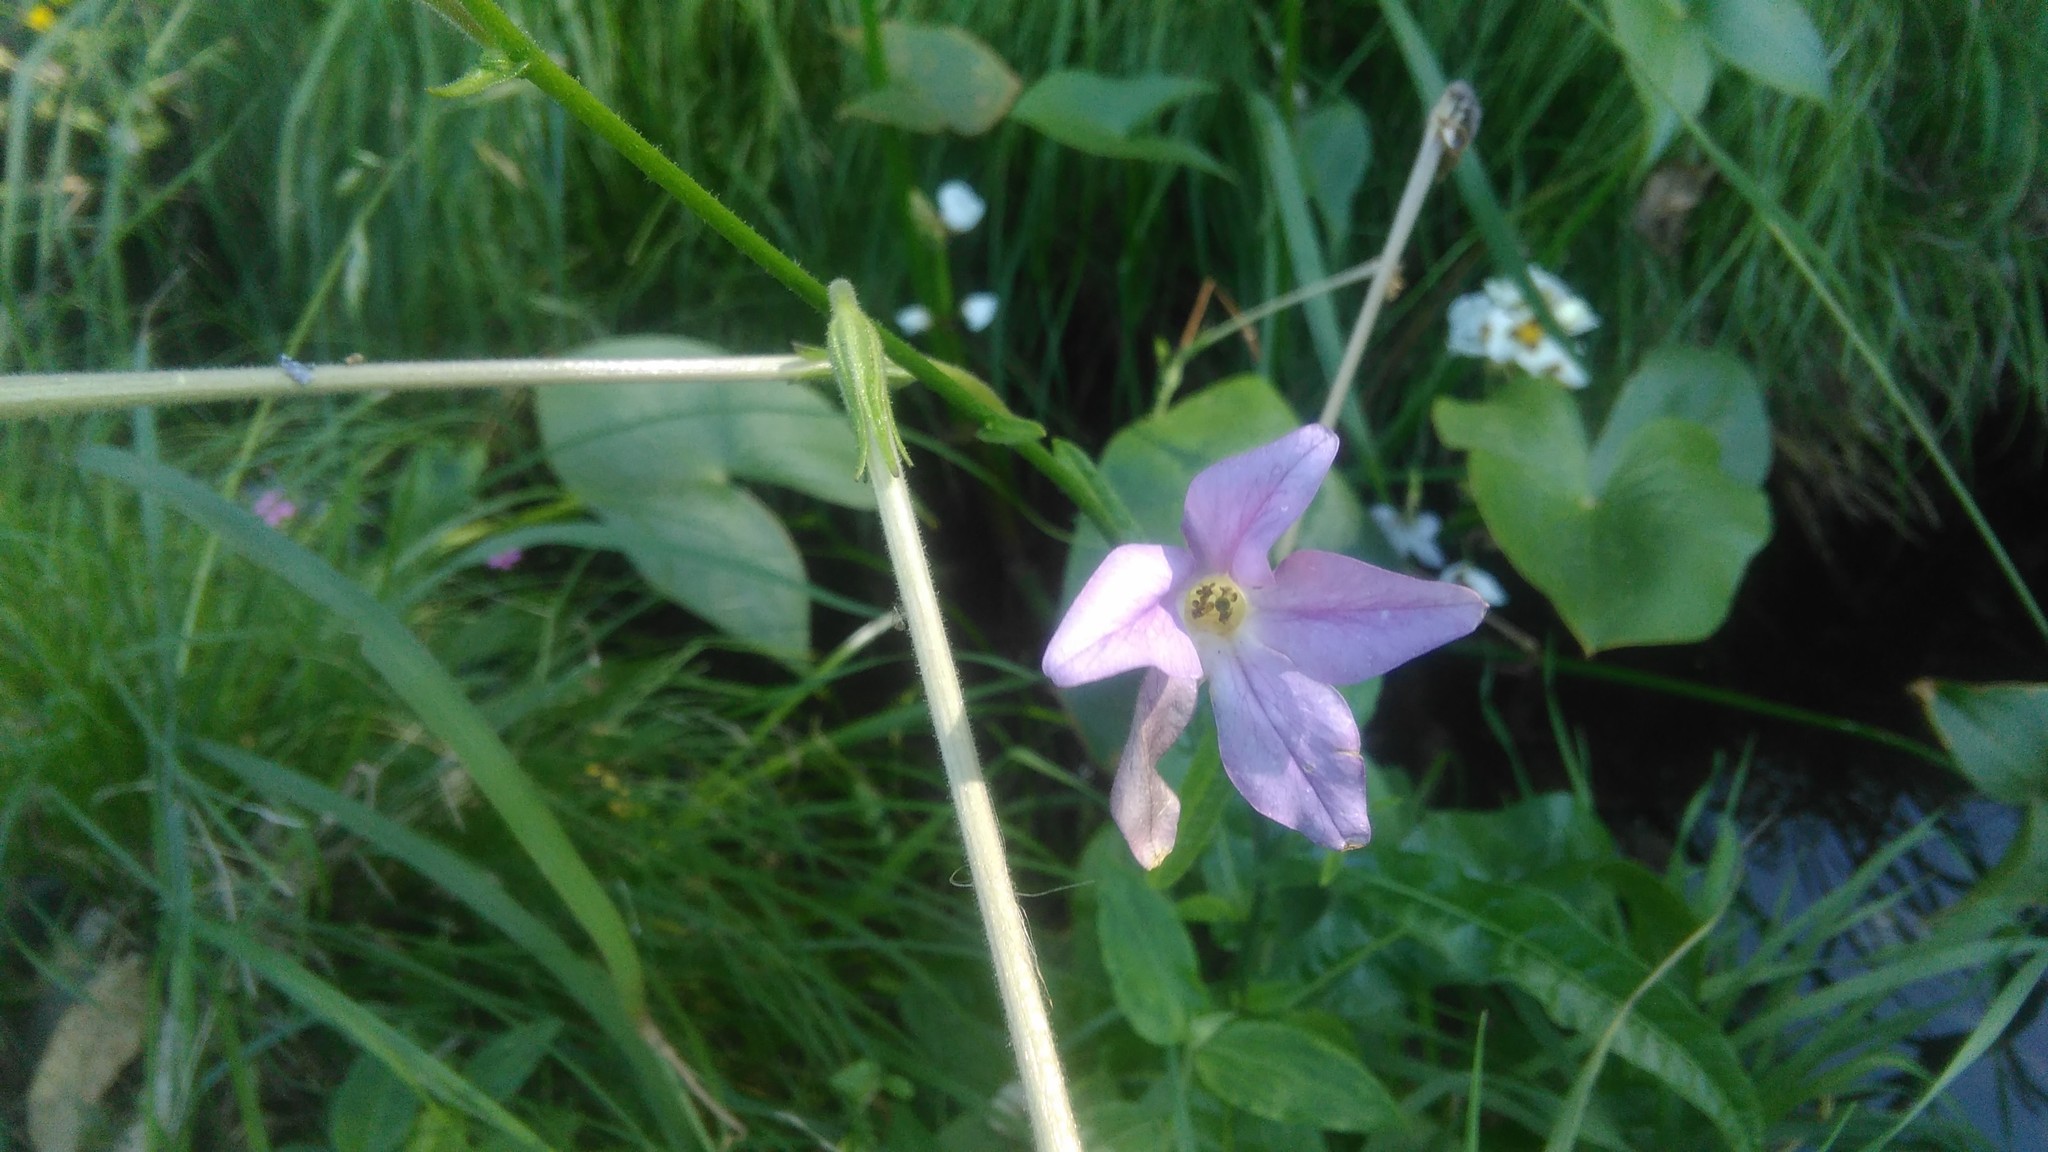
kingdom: Plantae
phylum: Tracheophyta
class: Magnoliopsida
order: Solanales
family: Solanaceae
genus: Nicotiana
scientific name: Nicotiana longiflora
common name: Long-flowered tobacco
